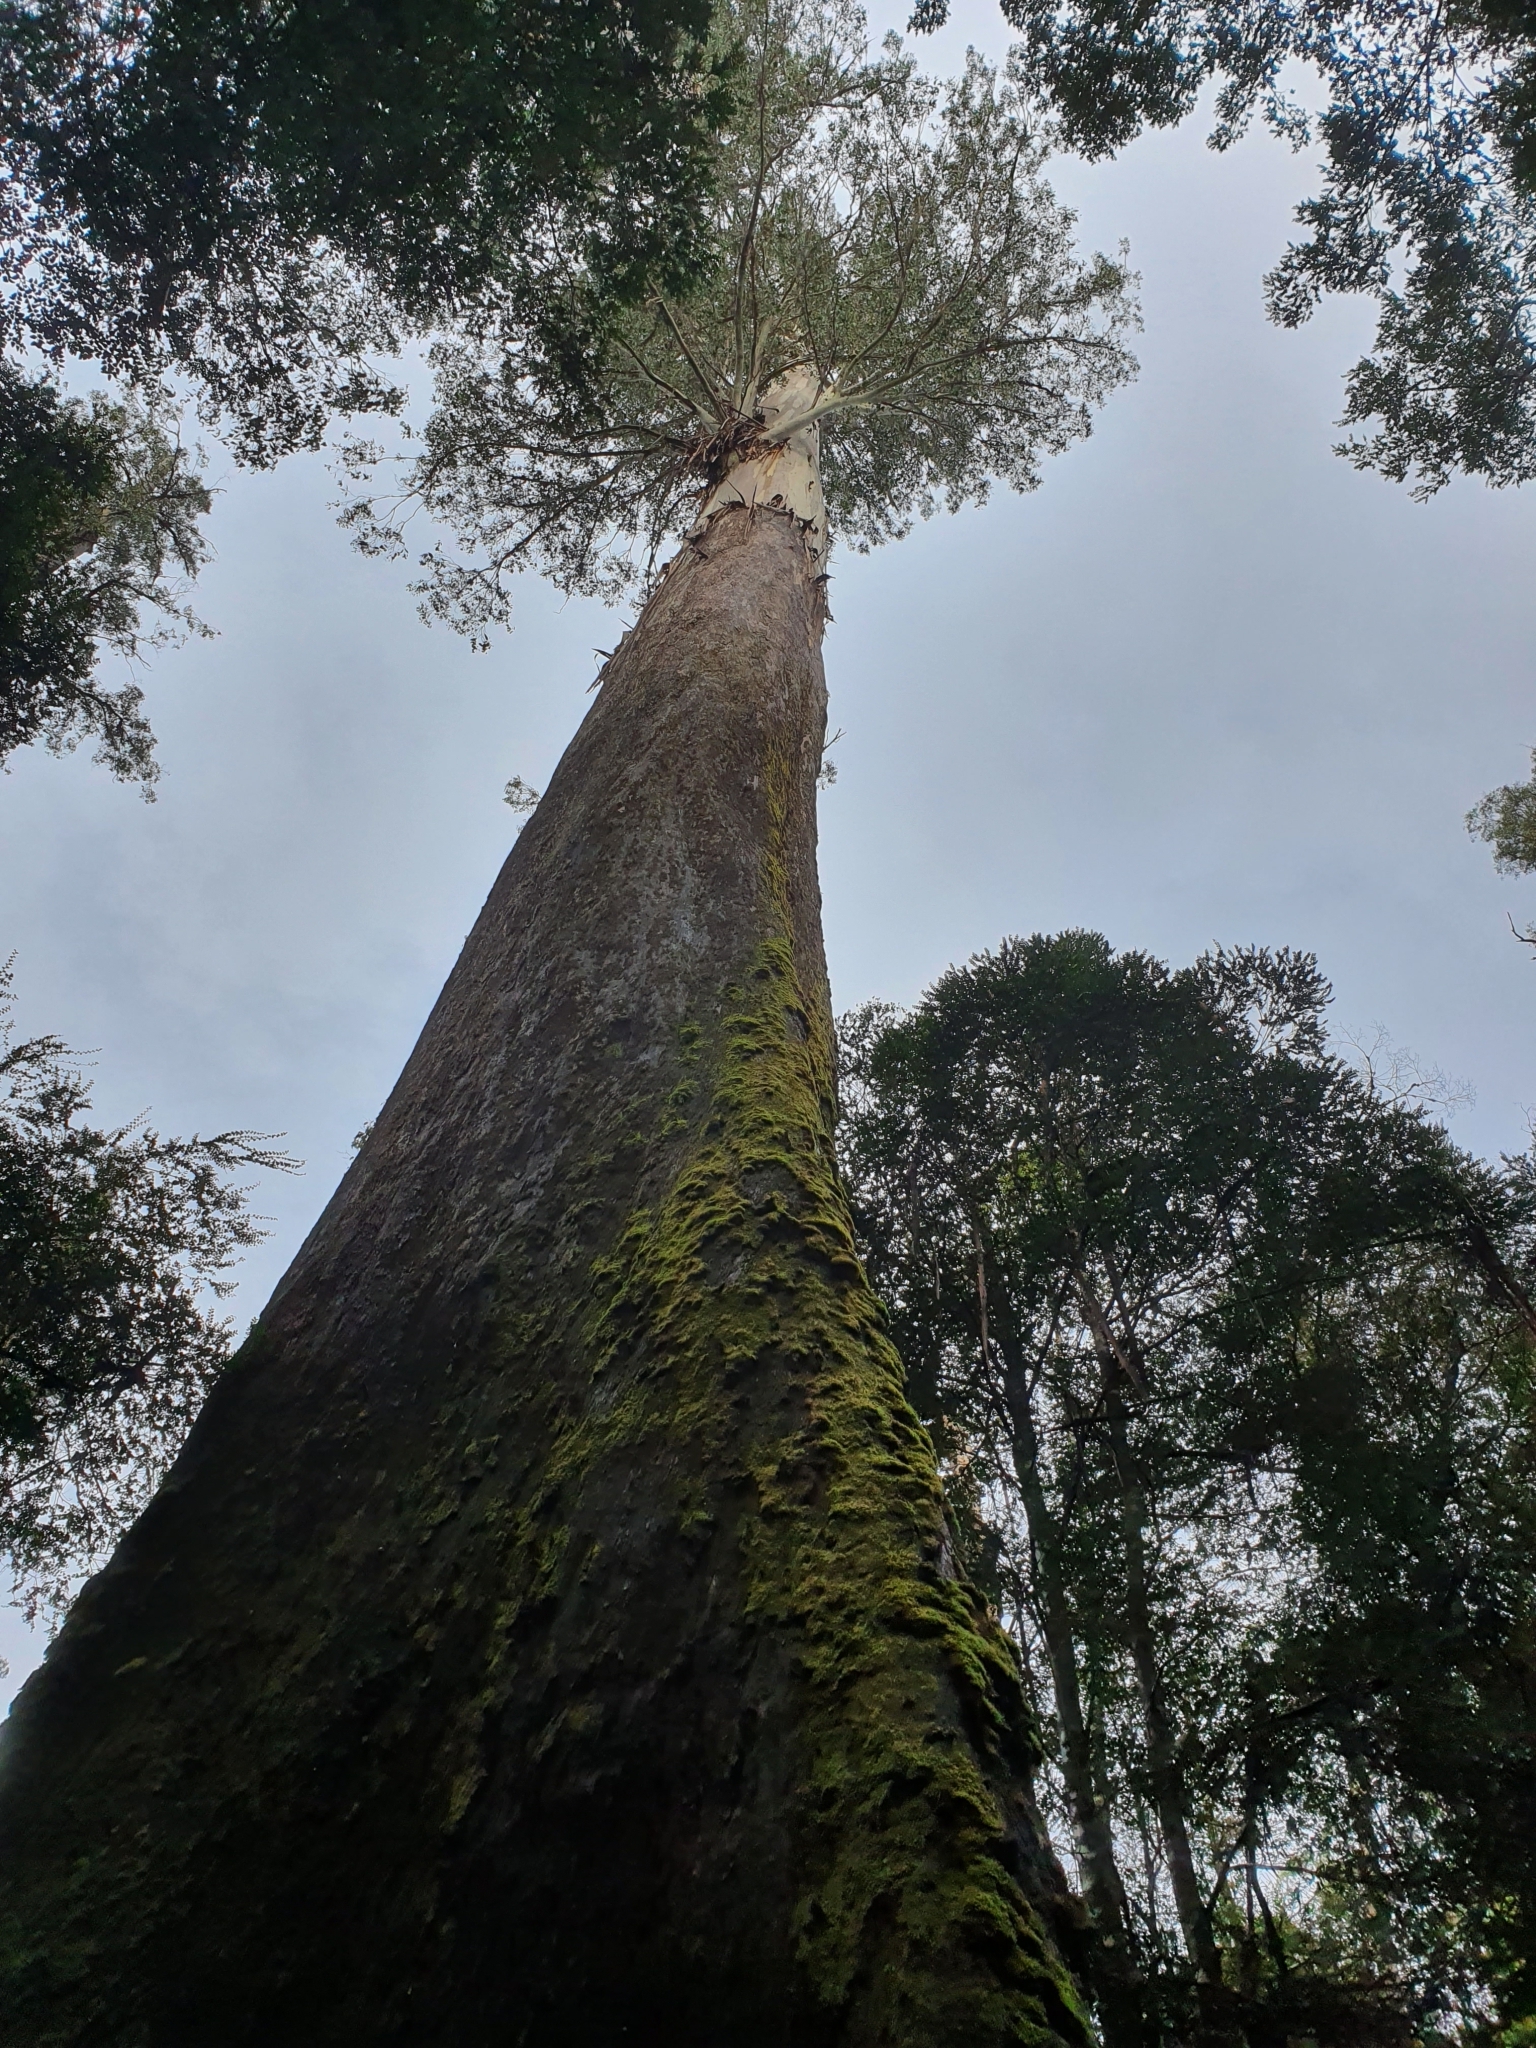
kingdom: Plantae
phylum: Tracheophyta
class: Magnoliopsida
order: Myrtales
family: Myrtaceae
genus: Eucalyptus
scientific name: Eucalyptus regnans
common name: Stringy gum
